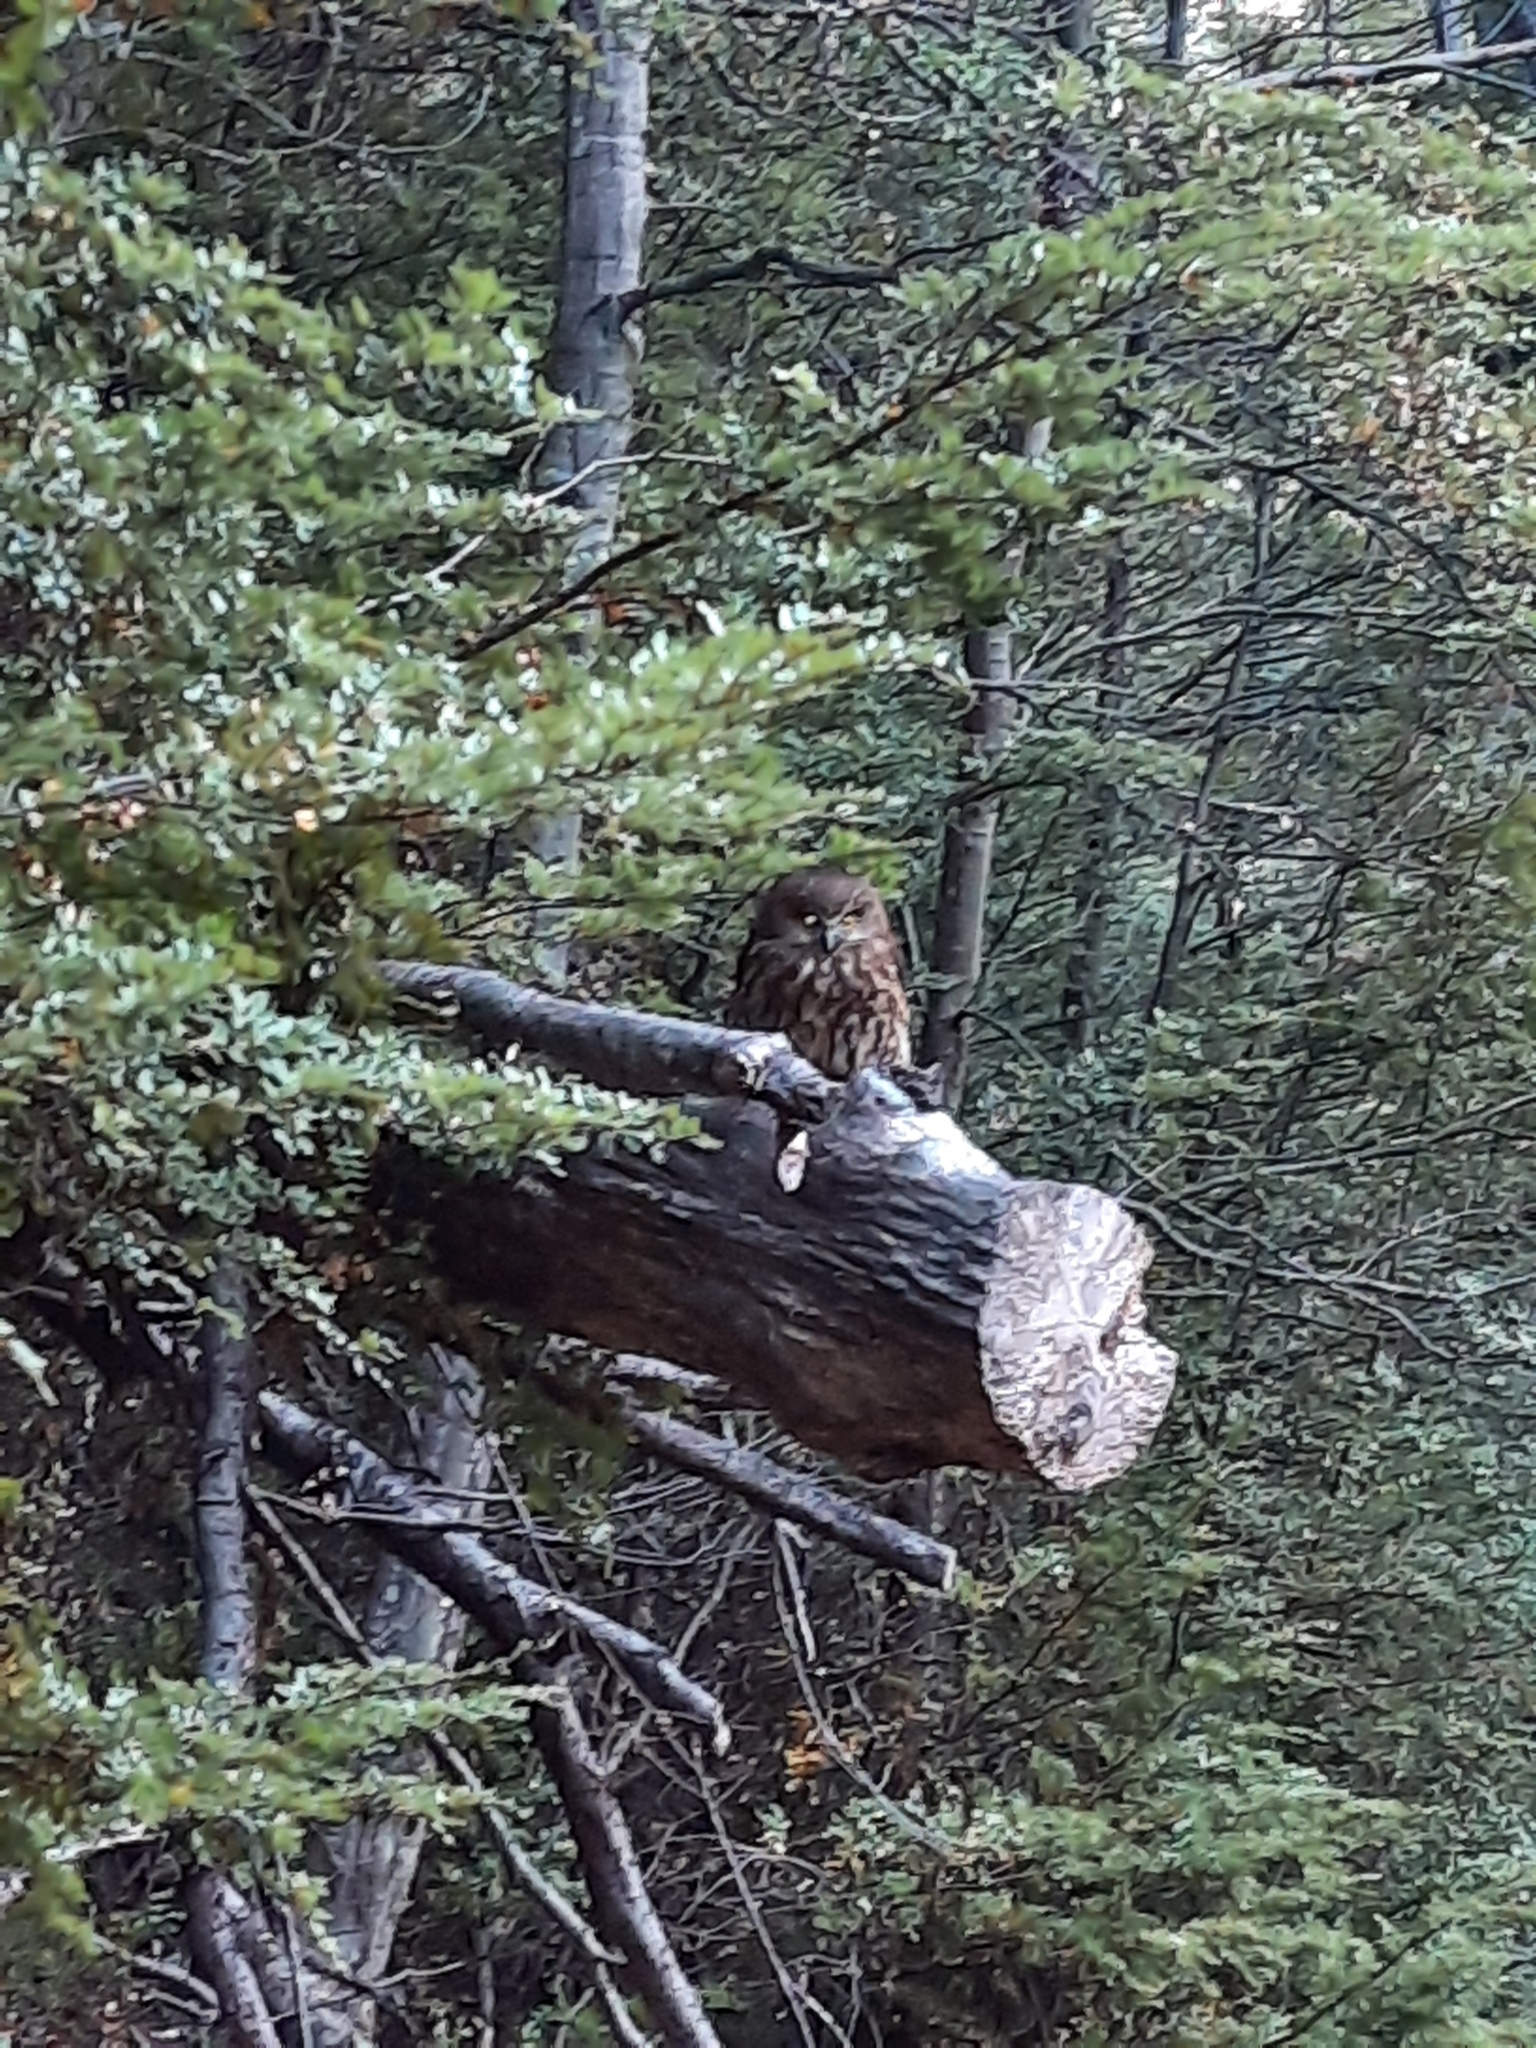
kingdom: Animalia
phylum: Chordata
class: Aves
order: Strigiformes
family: Strigidae
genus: Ninox
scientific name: Ninox novaeseelandiae
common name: Morepork
